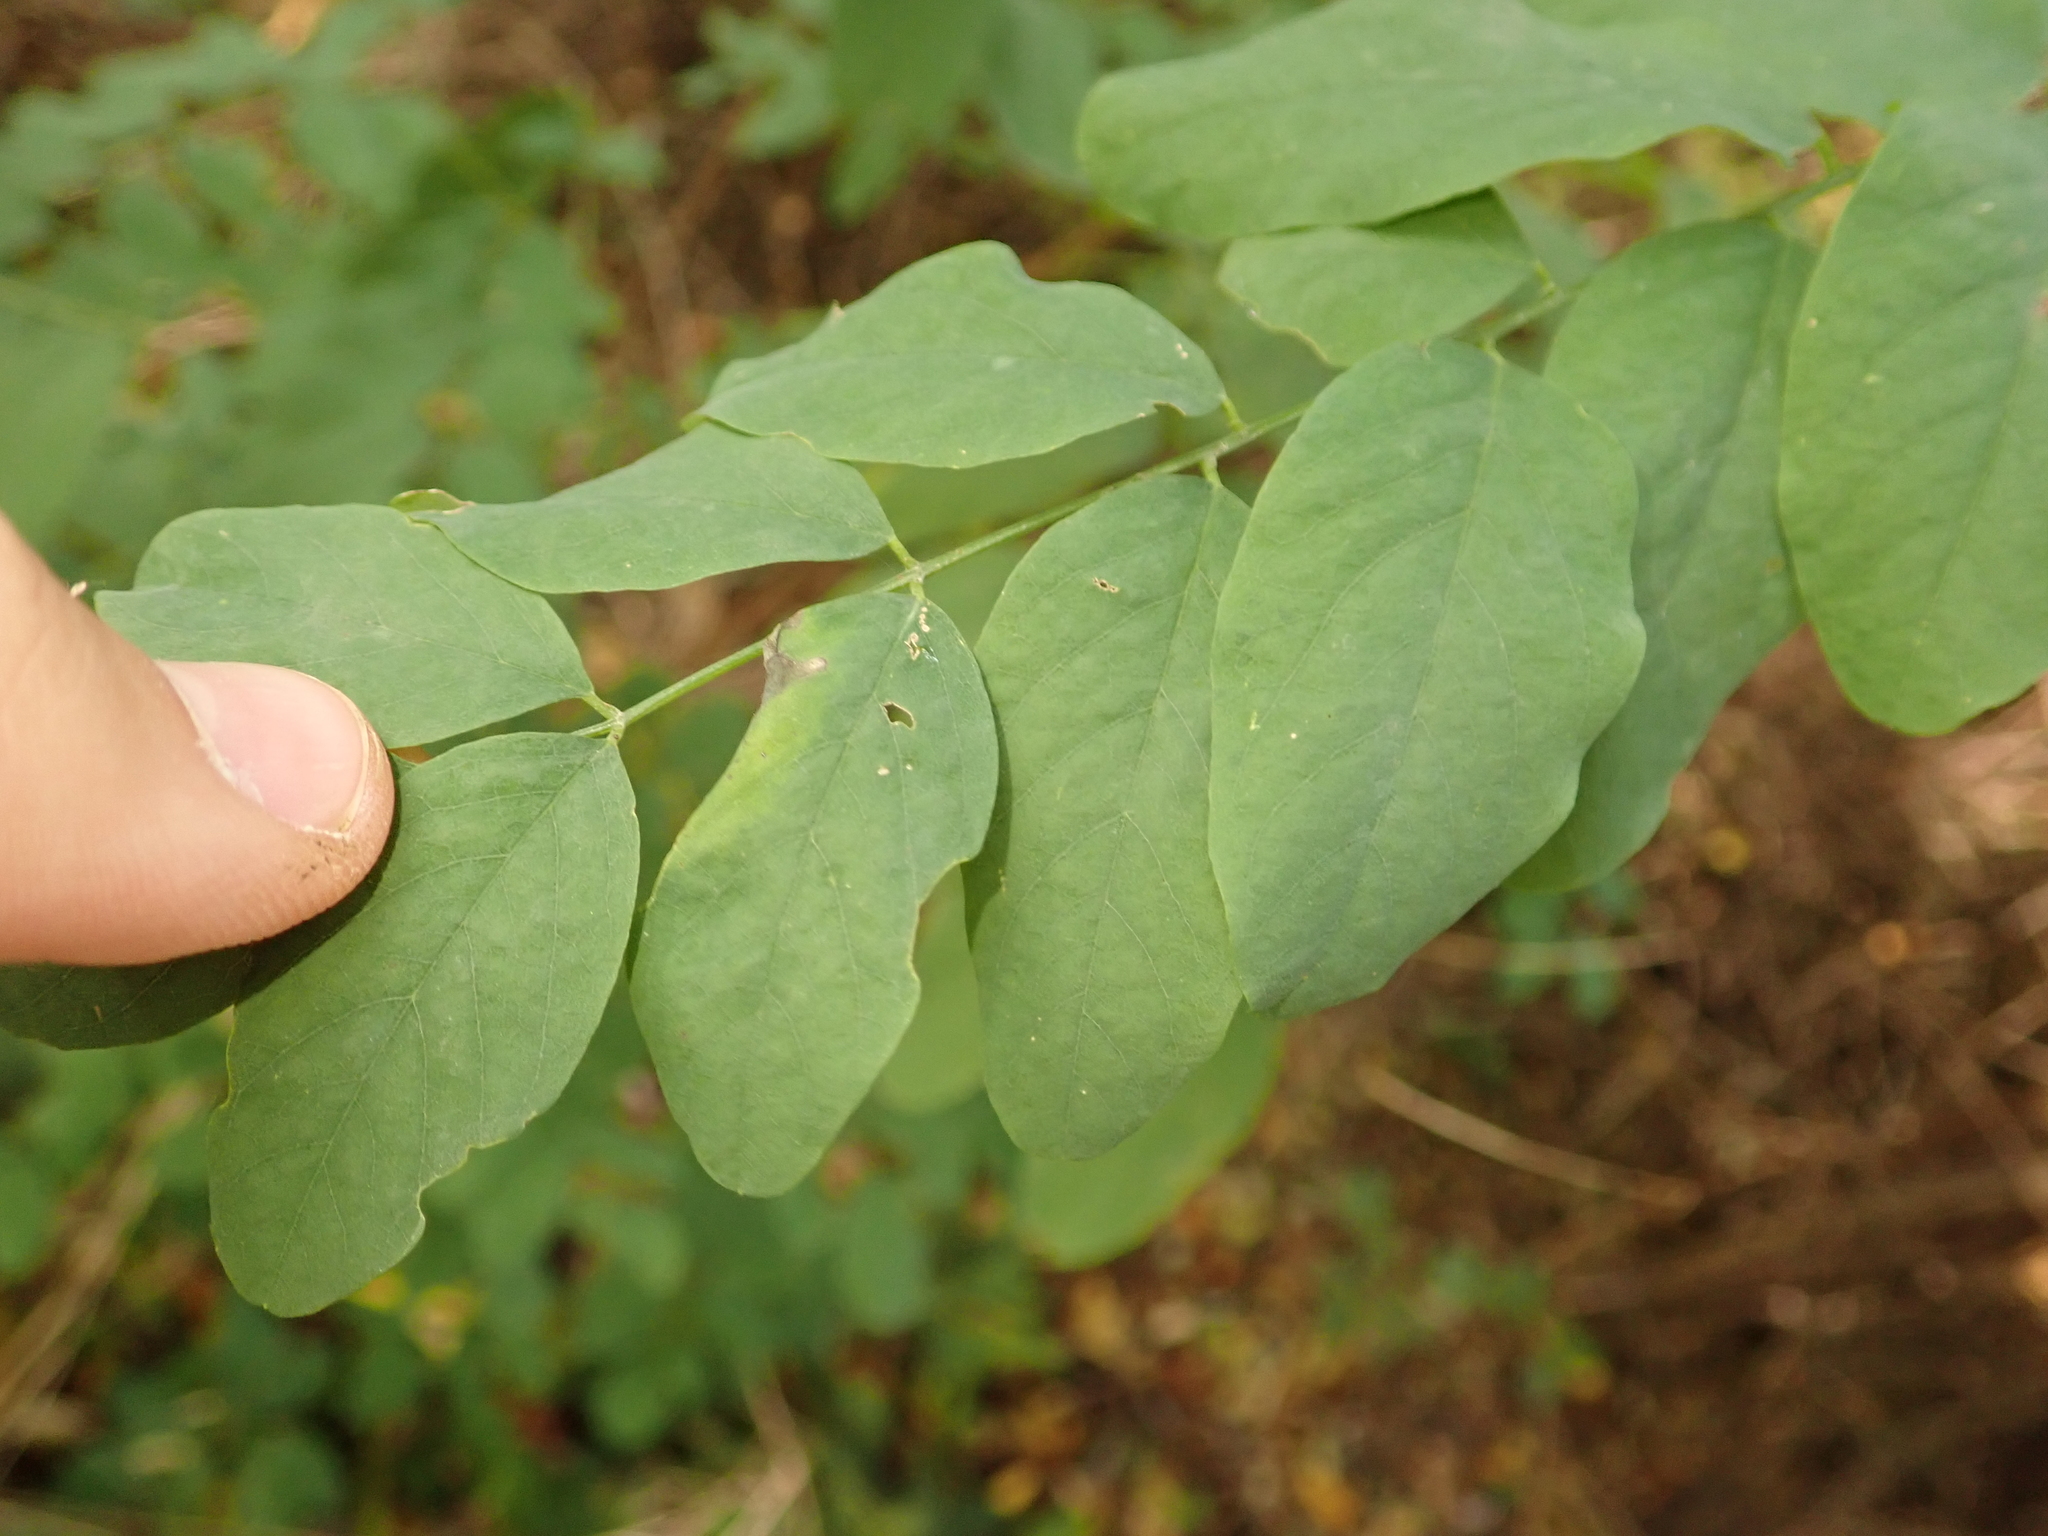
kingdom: Plantae
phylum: Tracheophyta
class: Magnoliopsida
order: Fabales
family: Fabaceae
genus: Robinia
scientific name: Robinia pseudoacacia
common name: Black locust
